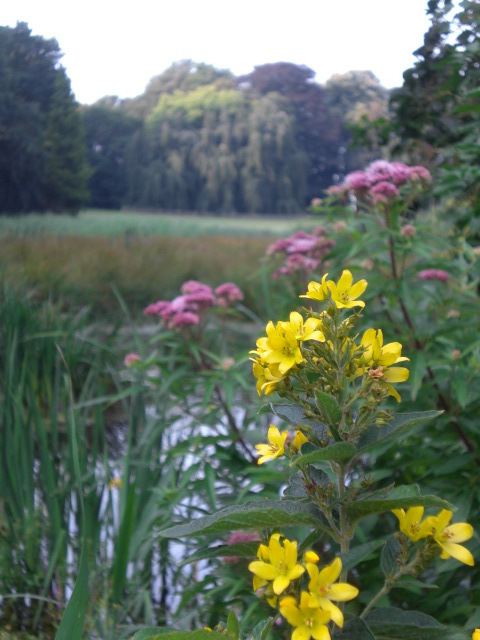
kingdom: Plantae
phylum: Tracheophyta
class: Magnoliopsida
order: Ericales
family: Primulaceae
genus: Lysimachia
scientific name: Lysimachia vulgaris
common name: Yellow loosestrife
